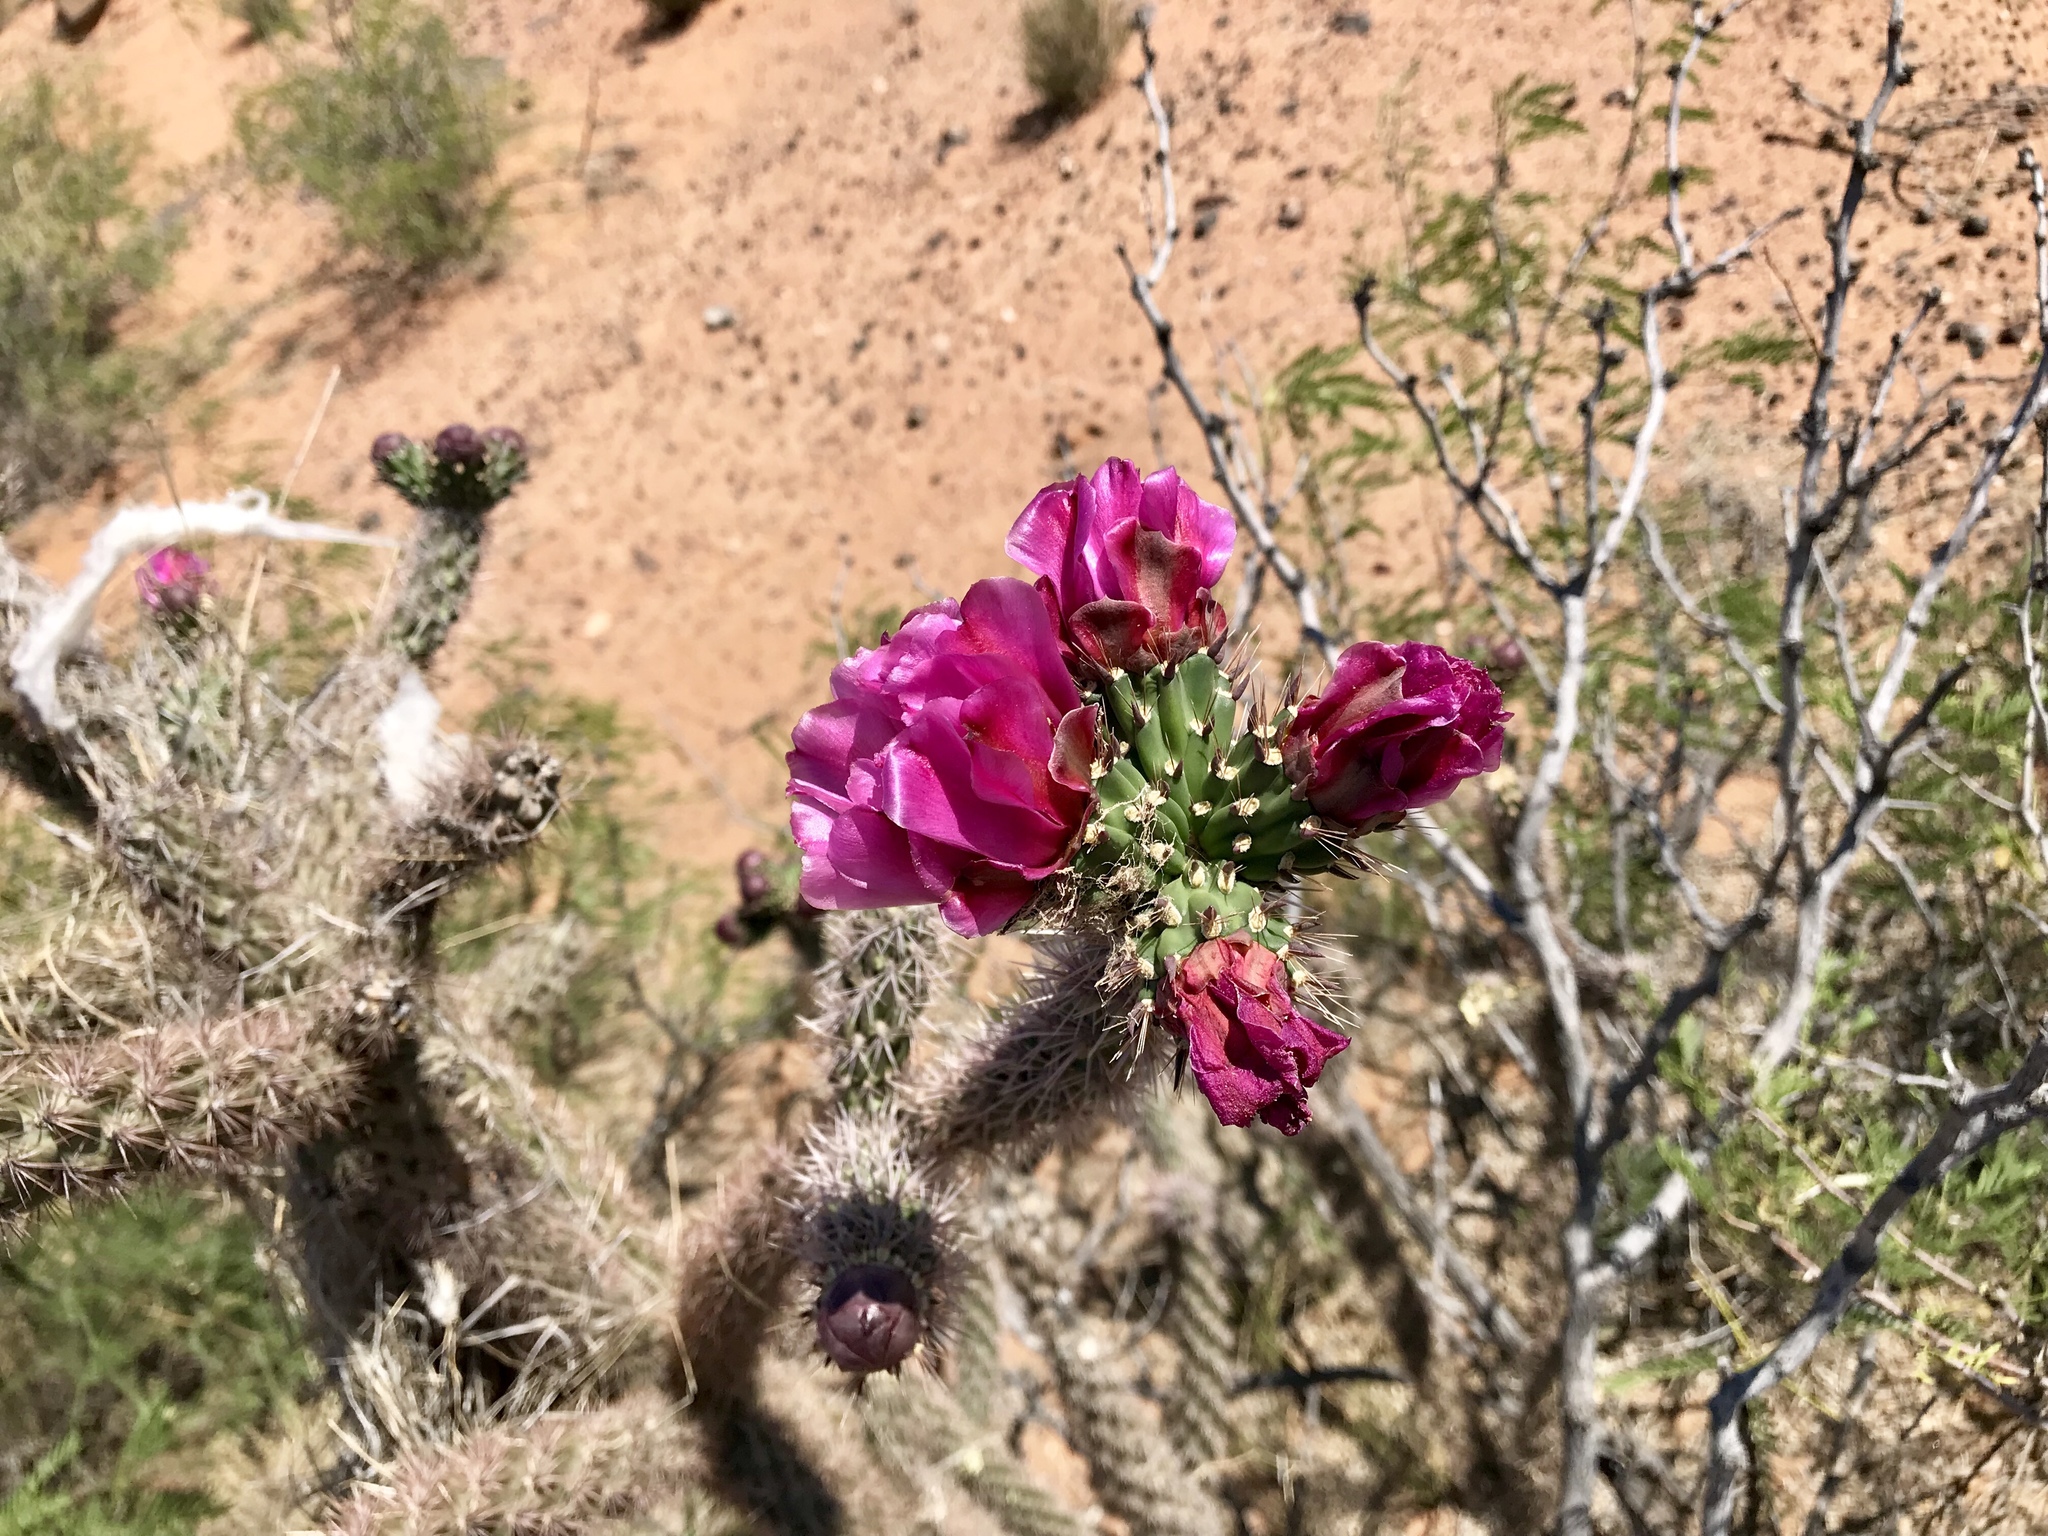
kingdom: Plantae
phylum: Tracheophyta
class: Magnoliopsida
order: Caryophyllales
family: Cactaceae
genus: Cylindropuntia
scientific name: Cylindropuntia imbricata
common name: Candelabrum cactus
